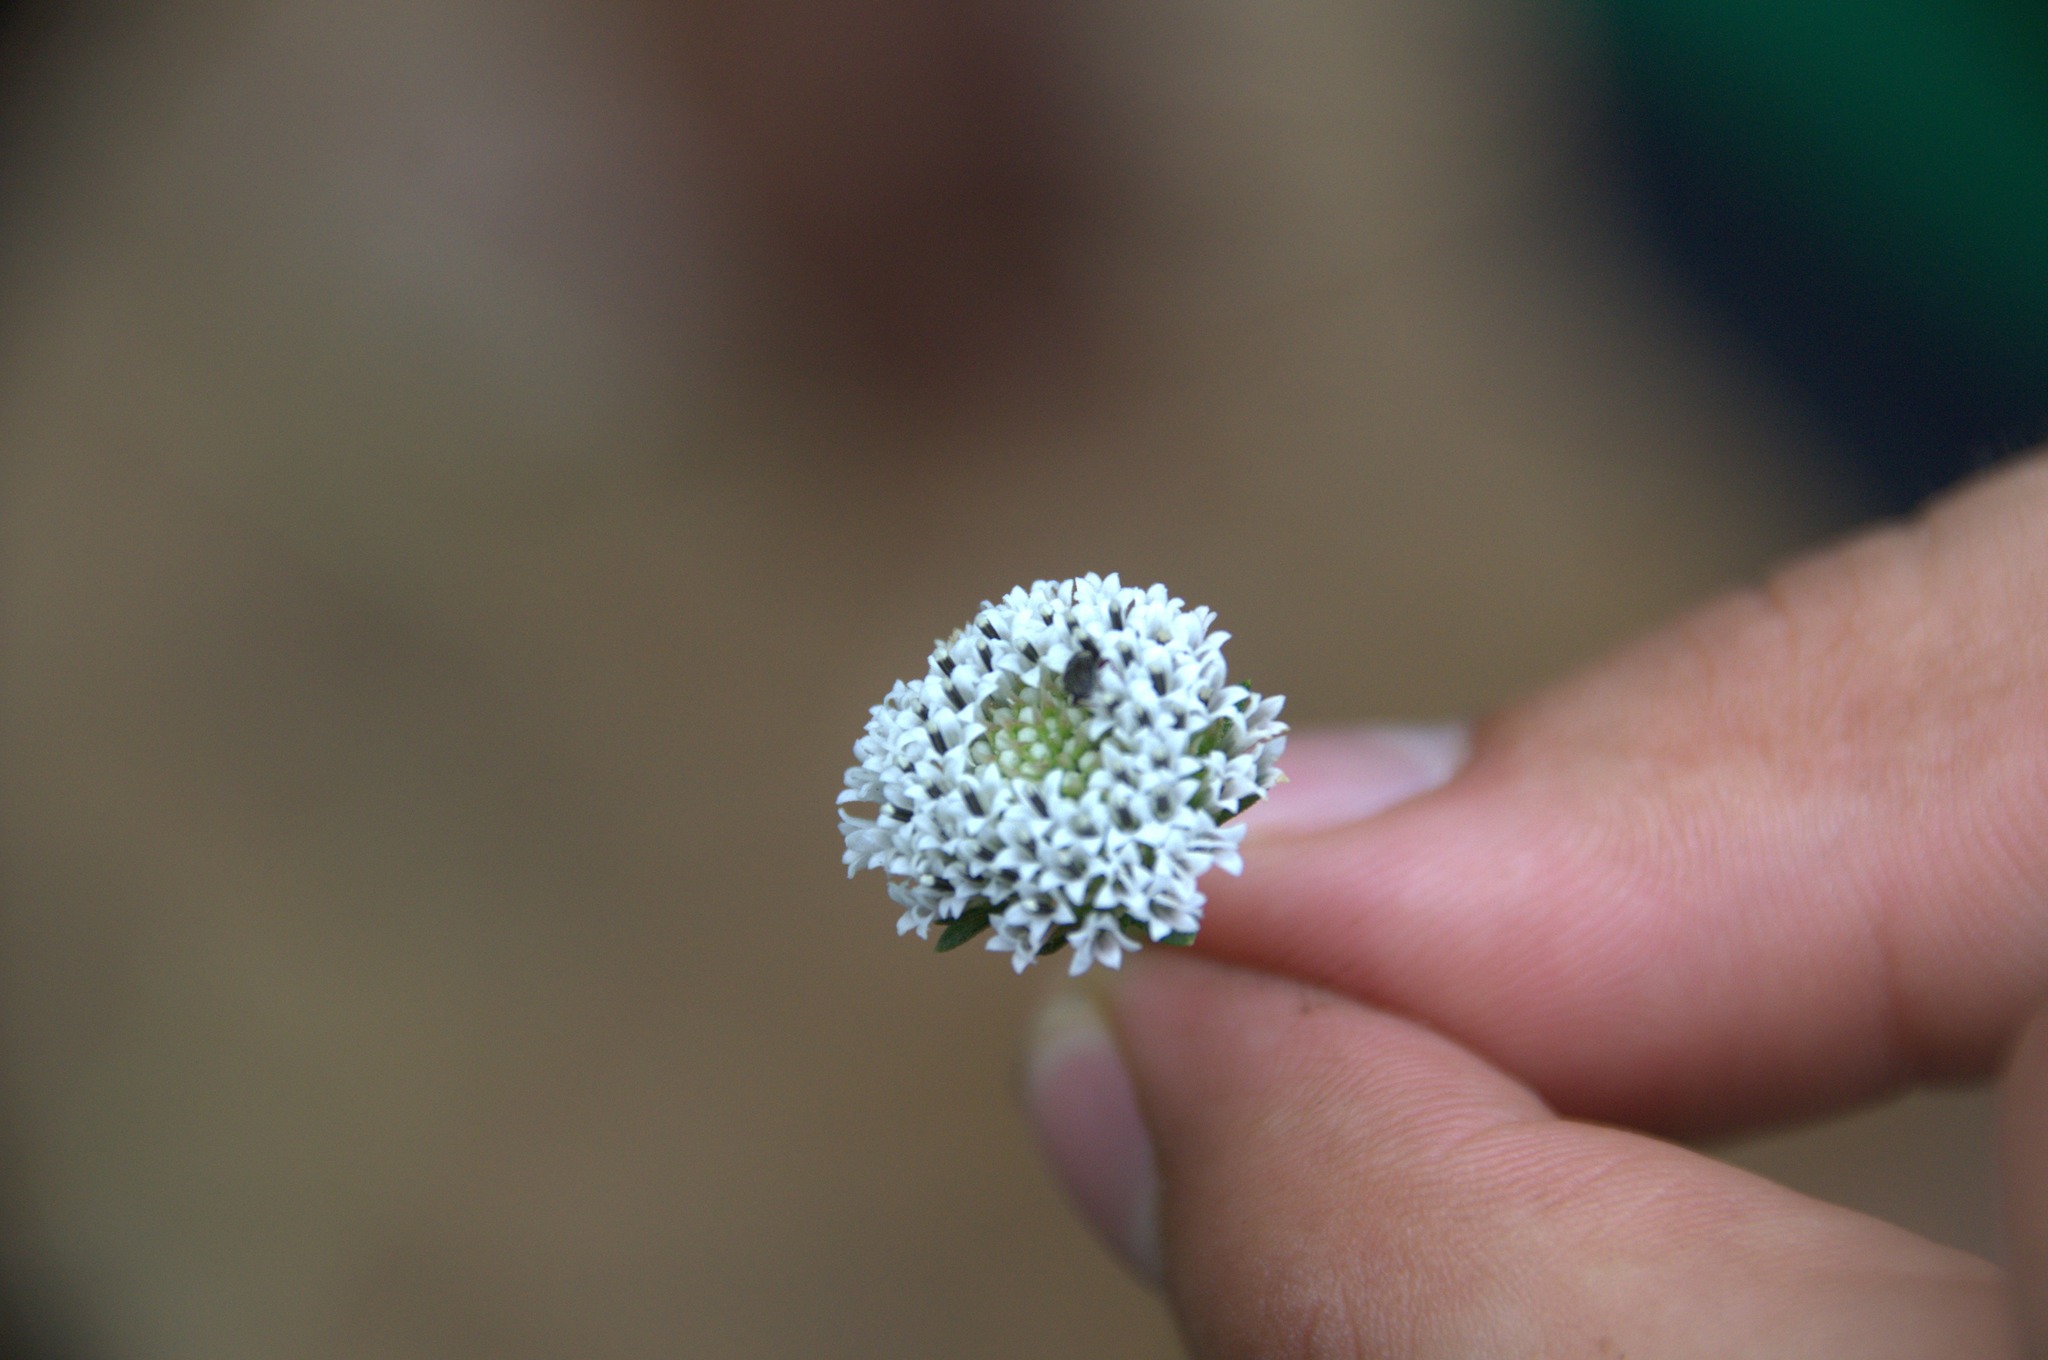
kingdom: Plantae
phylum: Tracheophyta
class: Magnoliopsida
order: Asterales
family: Asteraceae
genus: Melanthera
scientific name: Melanthera nivea
